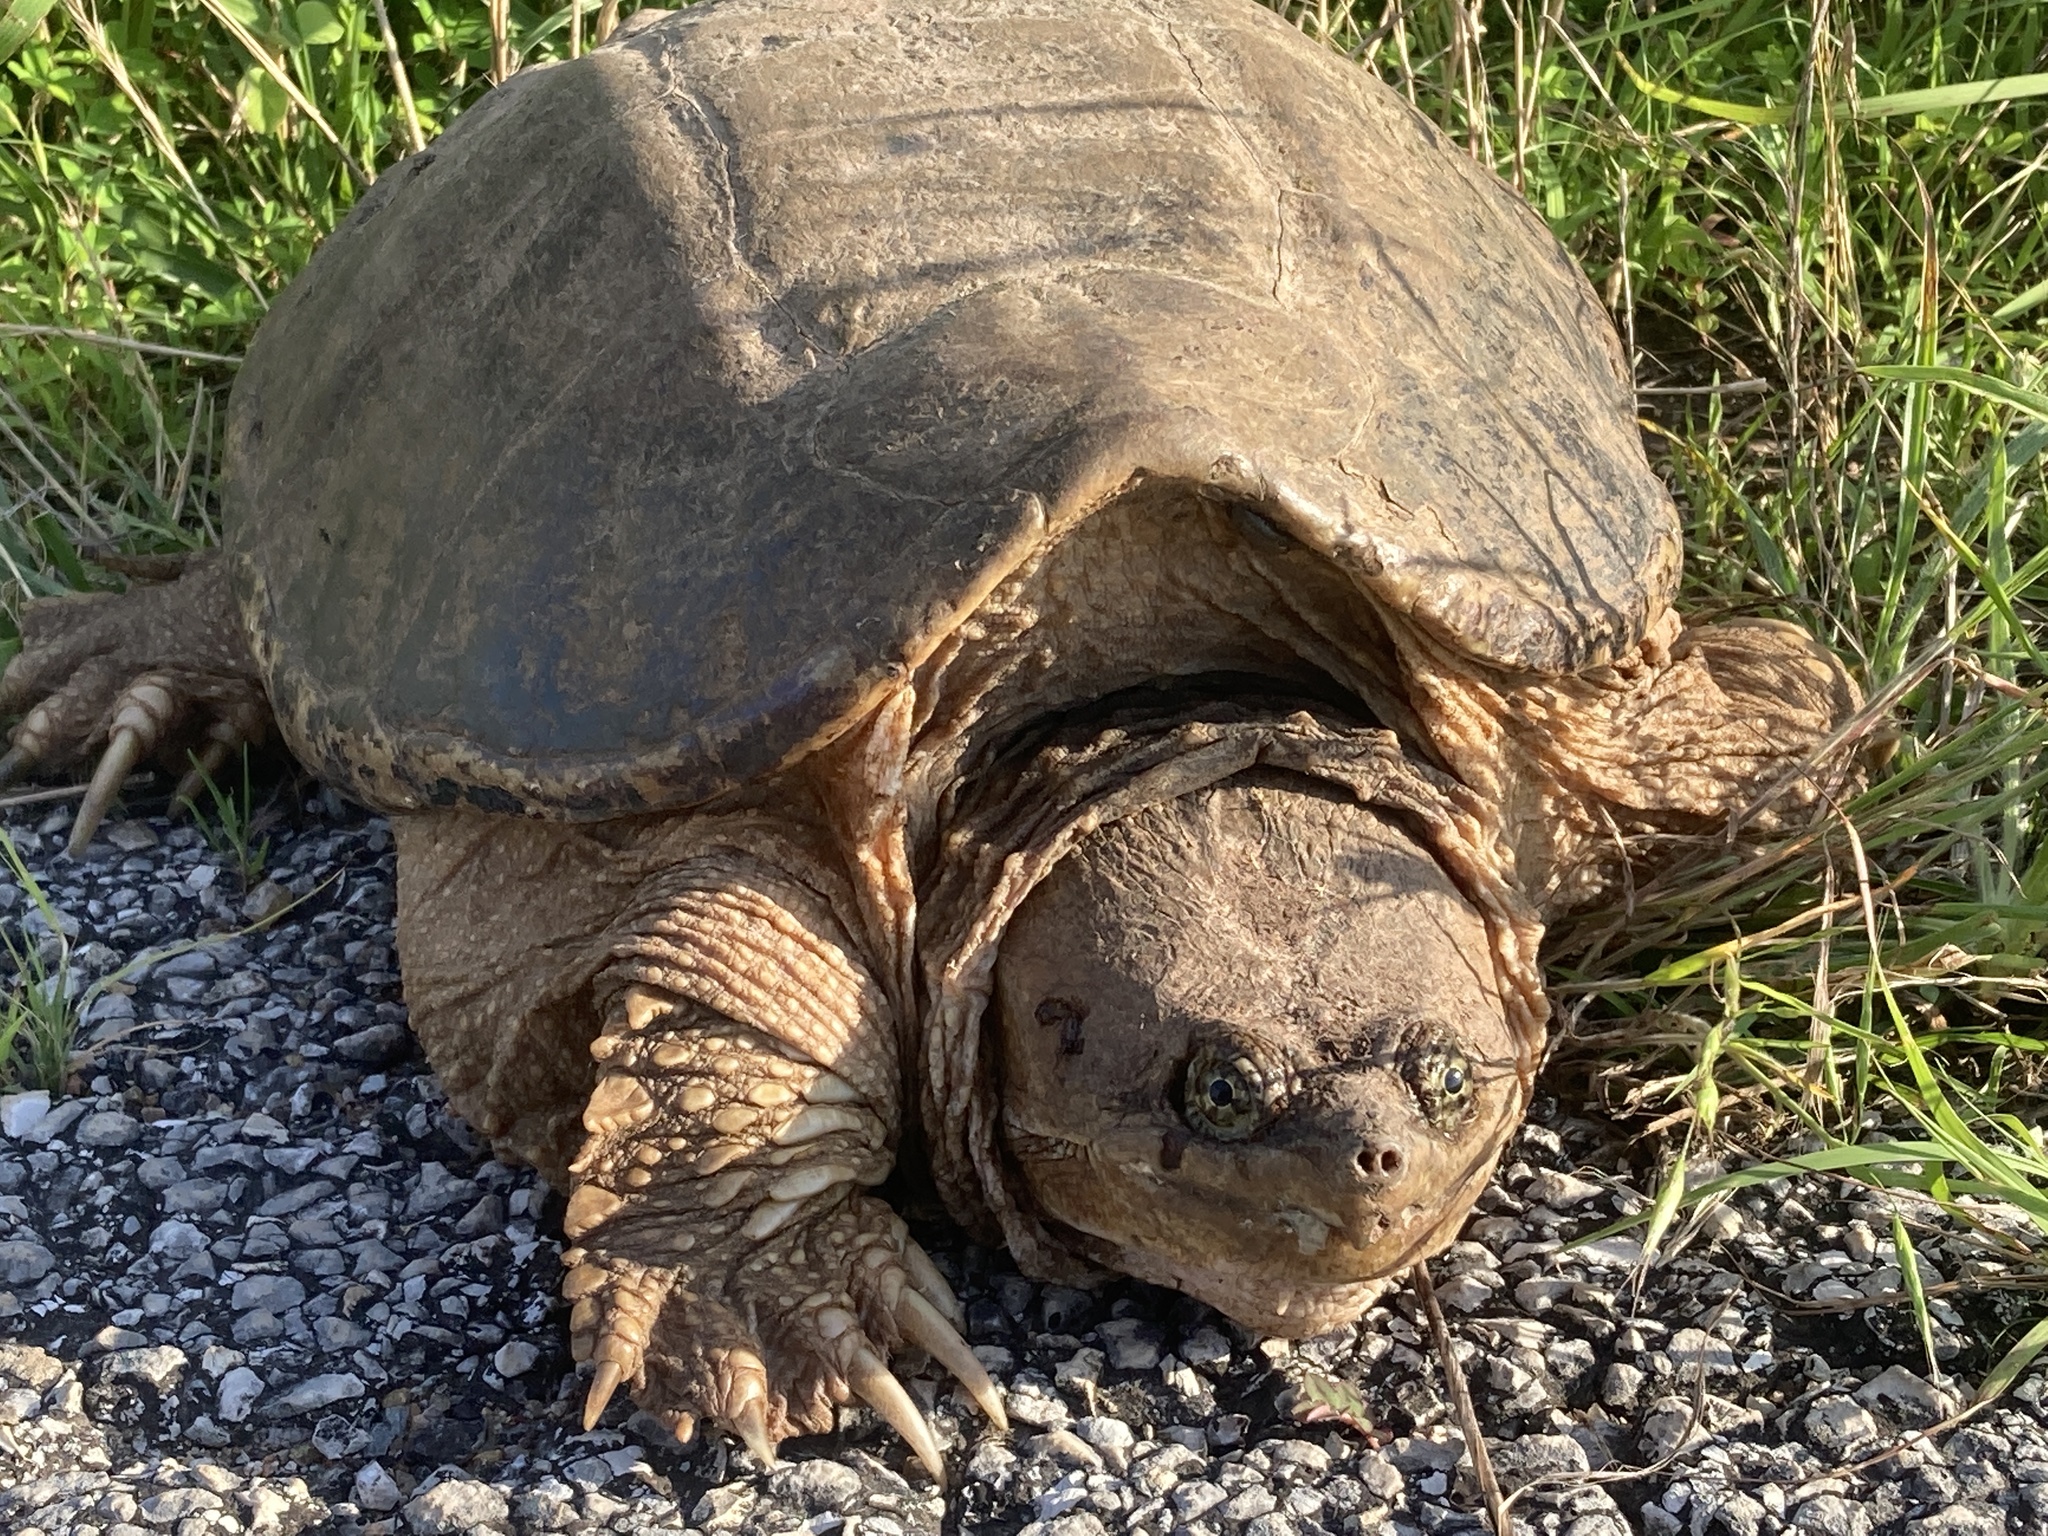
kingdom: Animalia
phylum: Chordata
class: Testudines
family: Chelydridae
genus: Chelydra
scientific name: Chelydra serpentina
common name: Common snapping turtle
